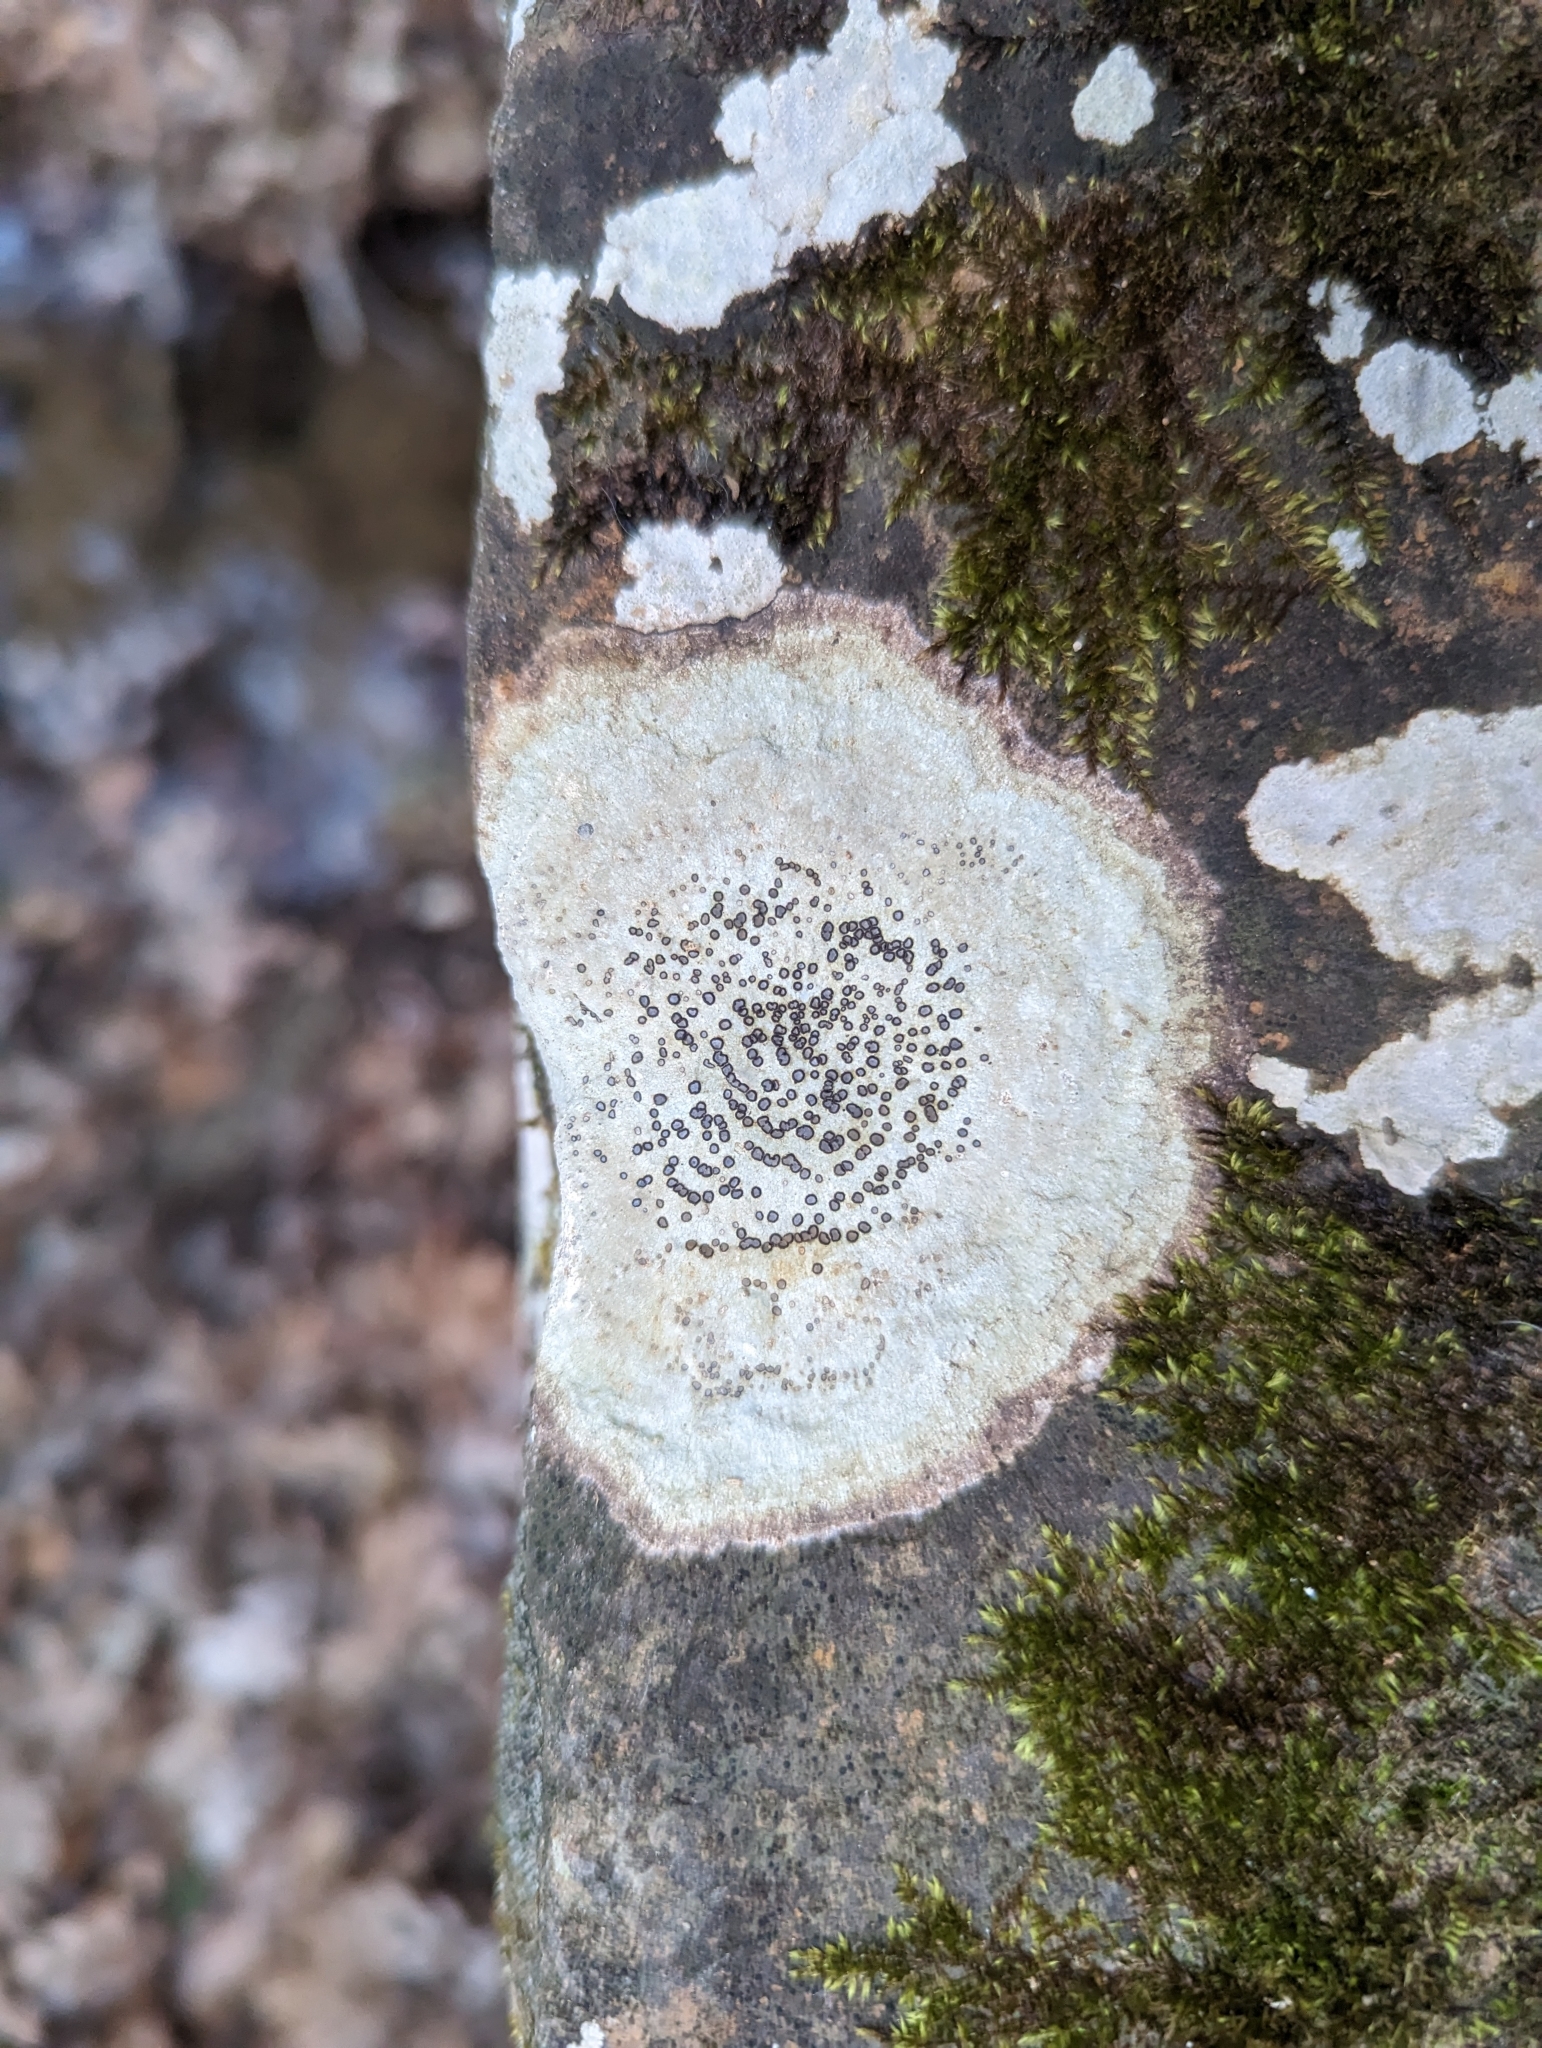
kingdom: Fungi
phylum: Ascomycota
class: Lecanoromycetes
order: Lecideales
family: Lecideaceae
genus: Porpidia
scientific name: Porpidia albocaerulescens
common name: Smokey-eyed boulder lichen
